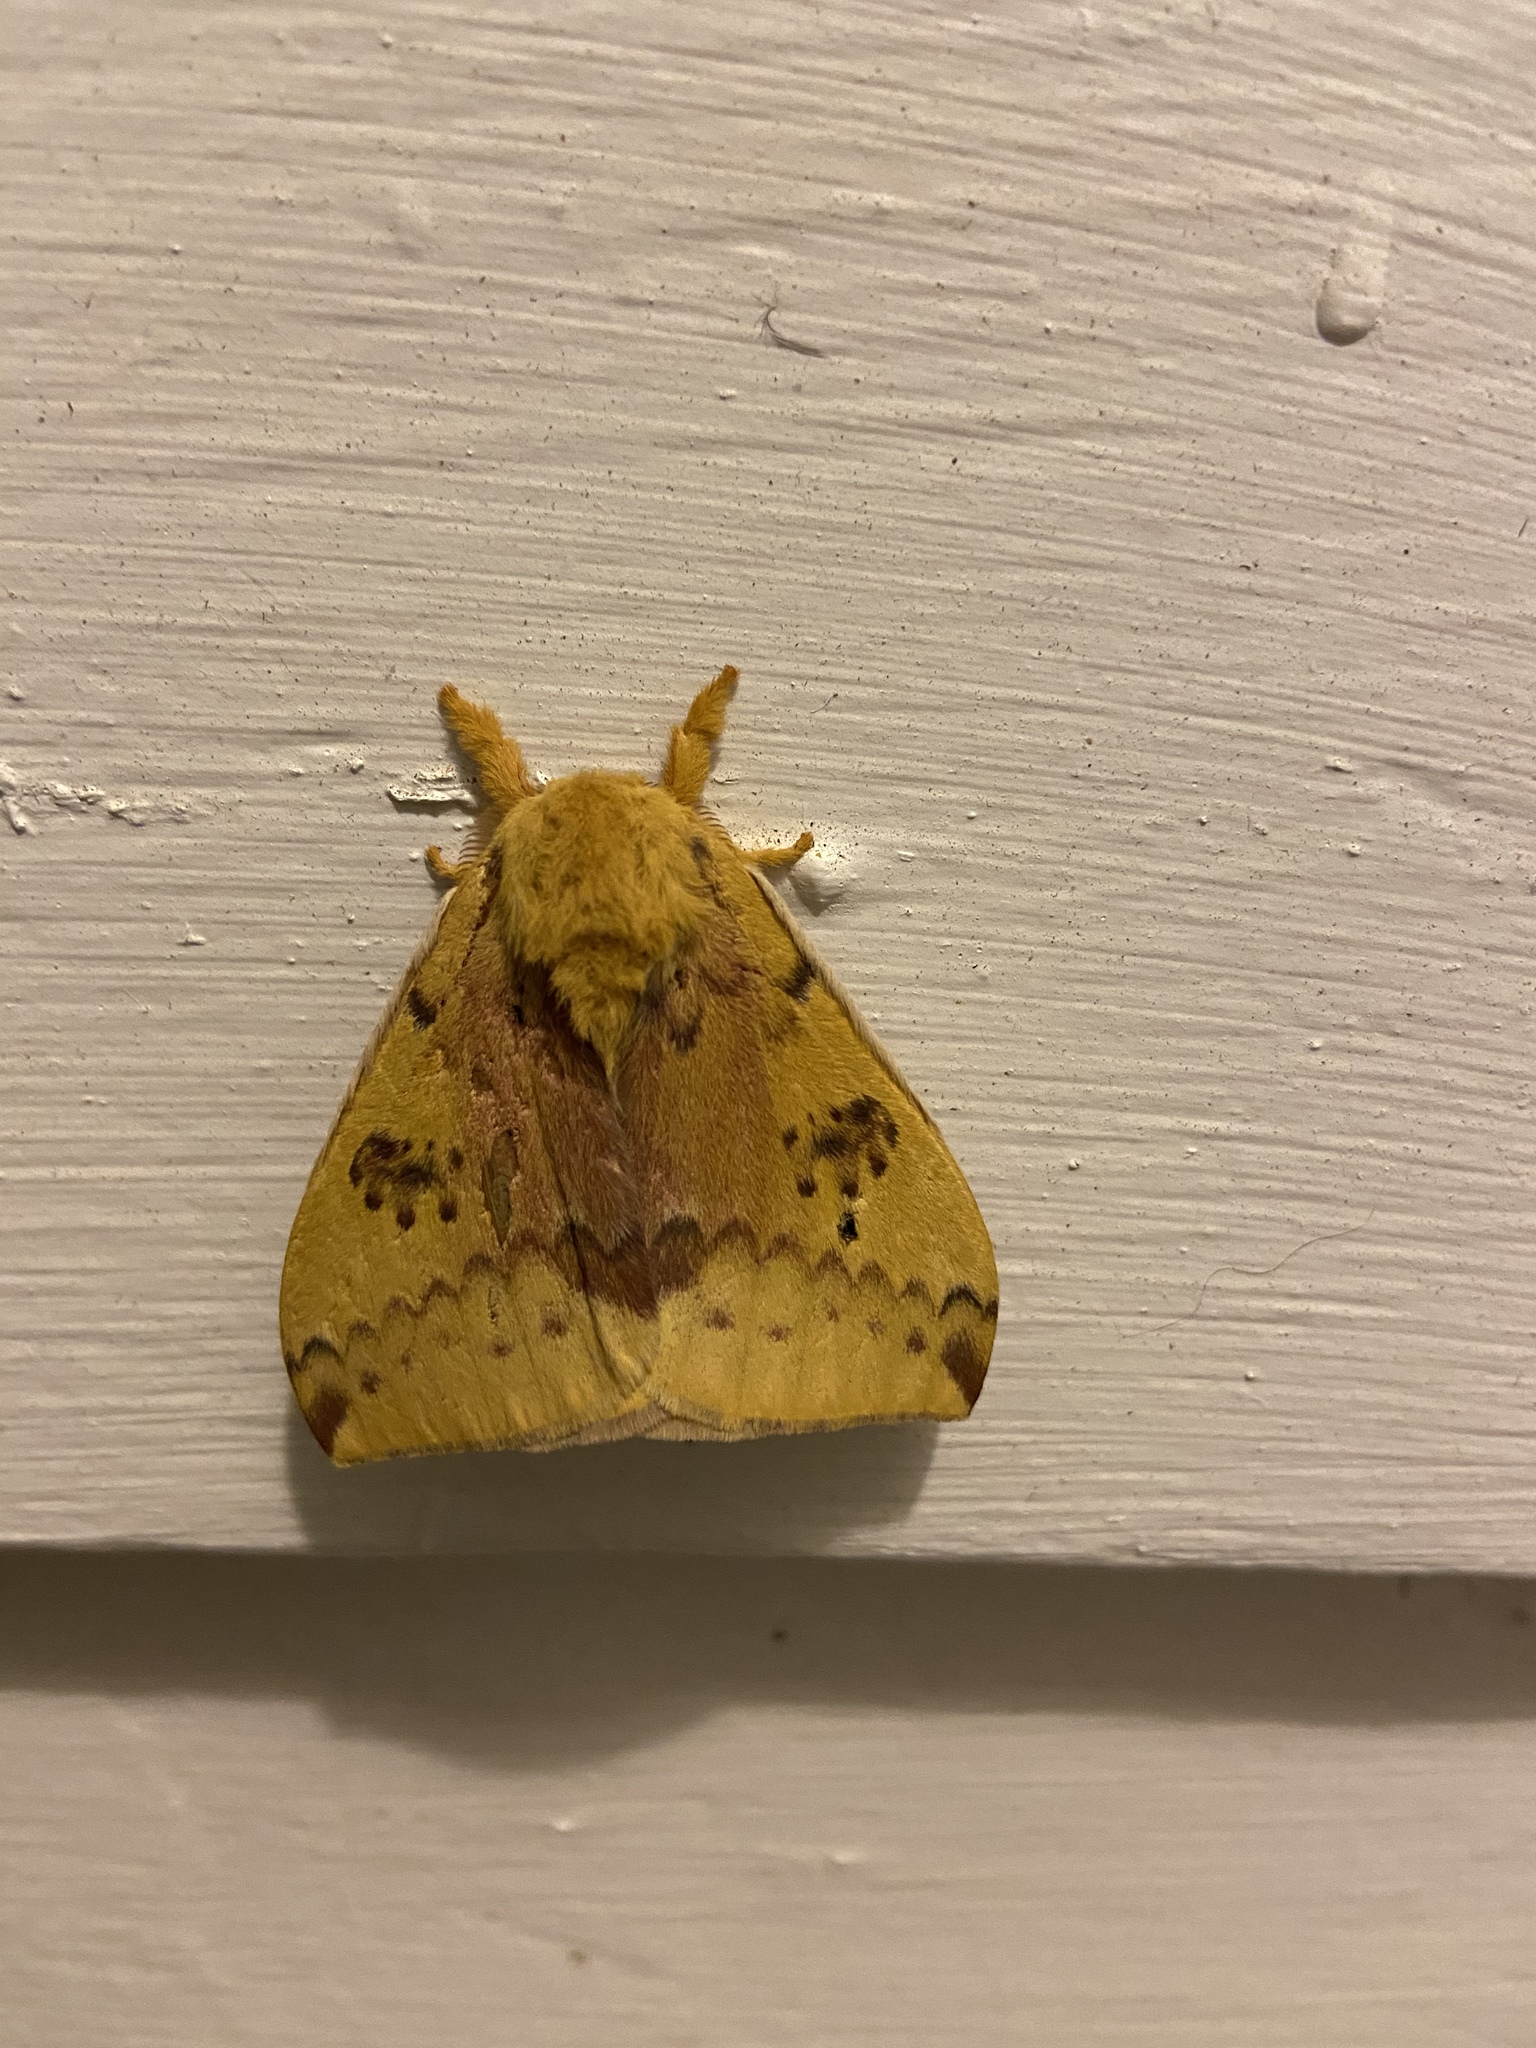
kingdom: Animalia
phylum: Arthropoda
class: Insecta
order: Lepidoptera
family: Saturniidae
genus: Automeris
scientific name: Automeris io
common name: Io moth
